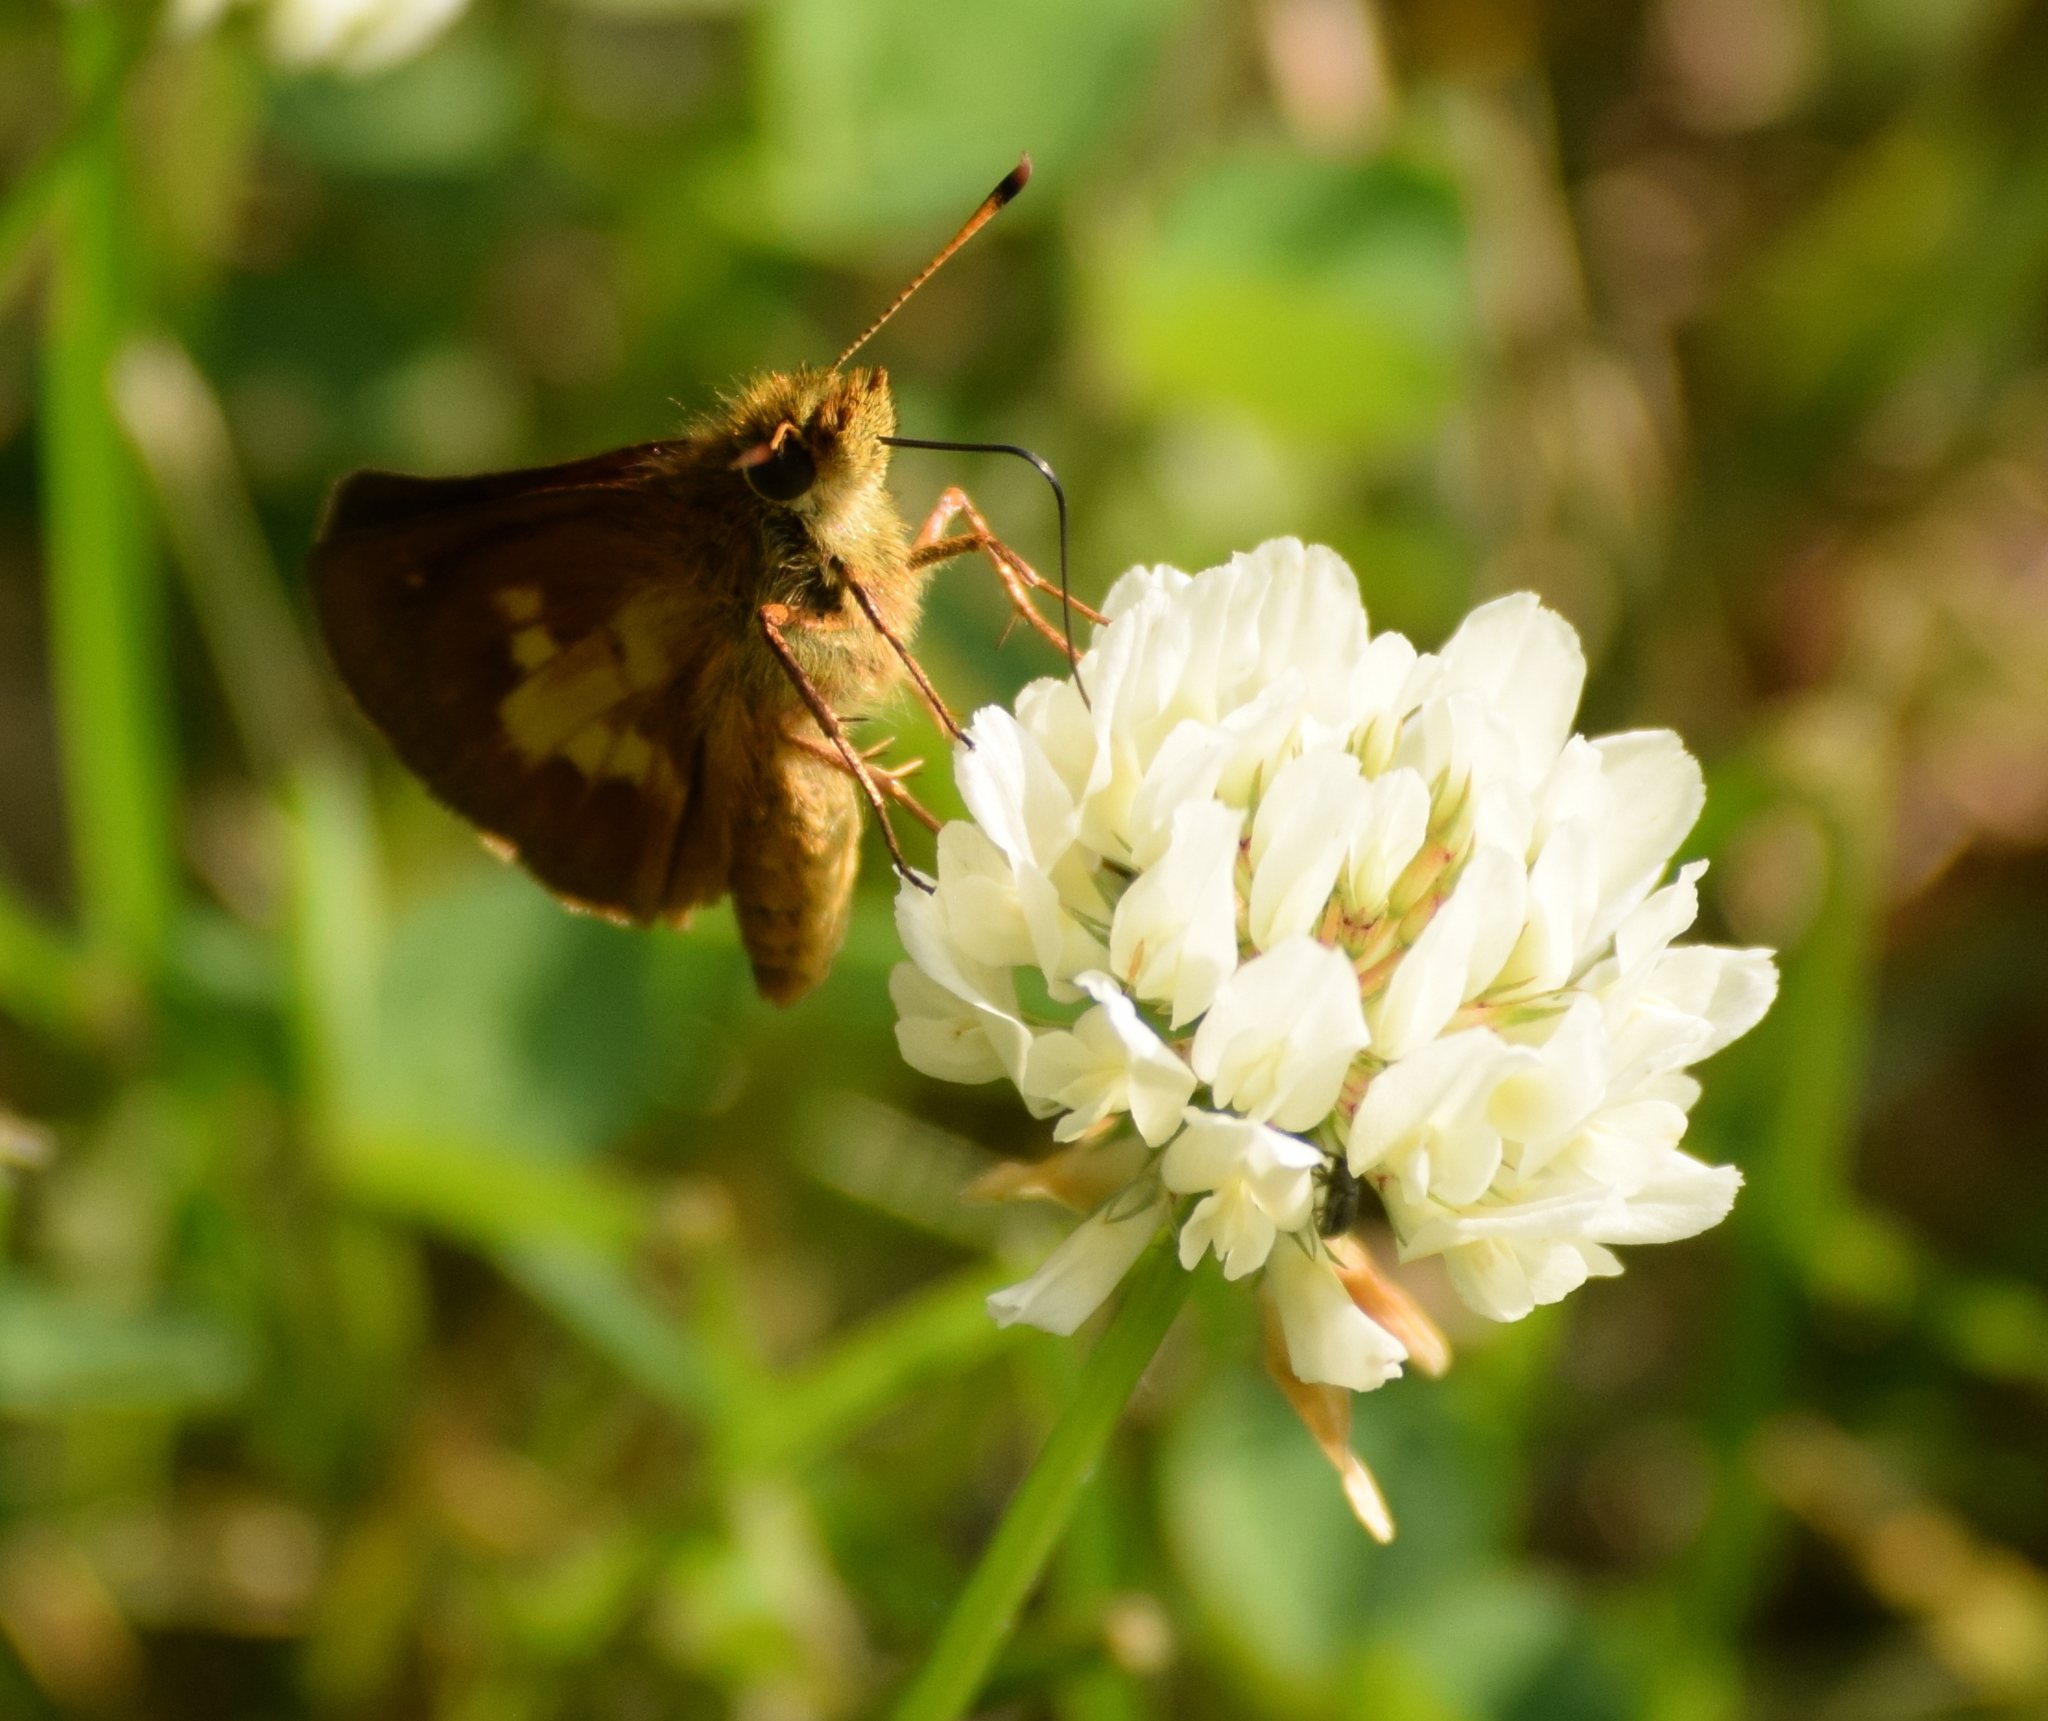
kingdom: Animalia
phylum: Arthropoda
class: Insecta
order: Lepidoptera
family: Hesperiidae
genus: Poanes
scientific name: Poanes massasoit
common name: Mulberrywing
